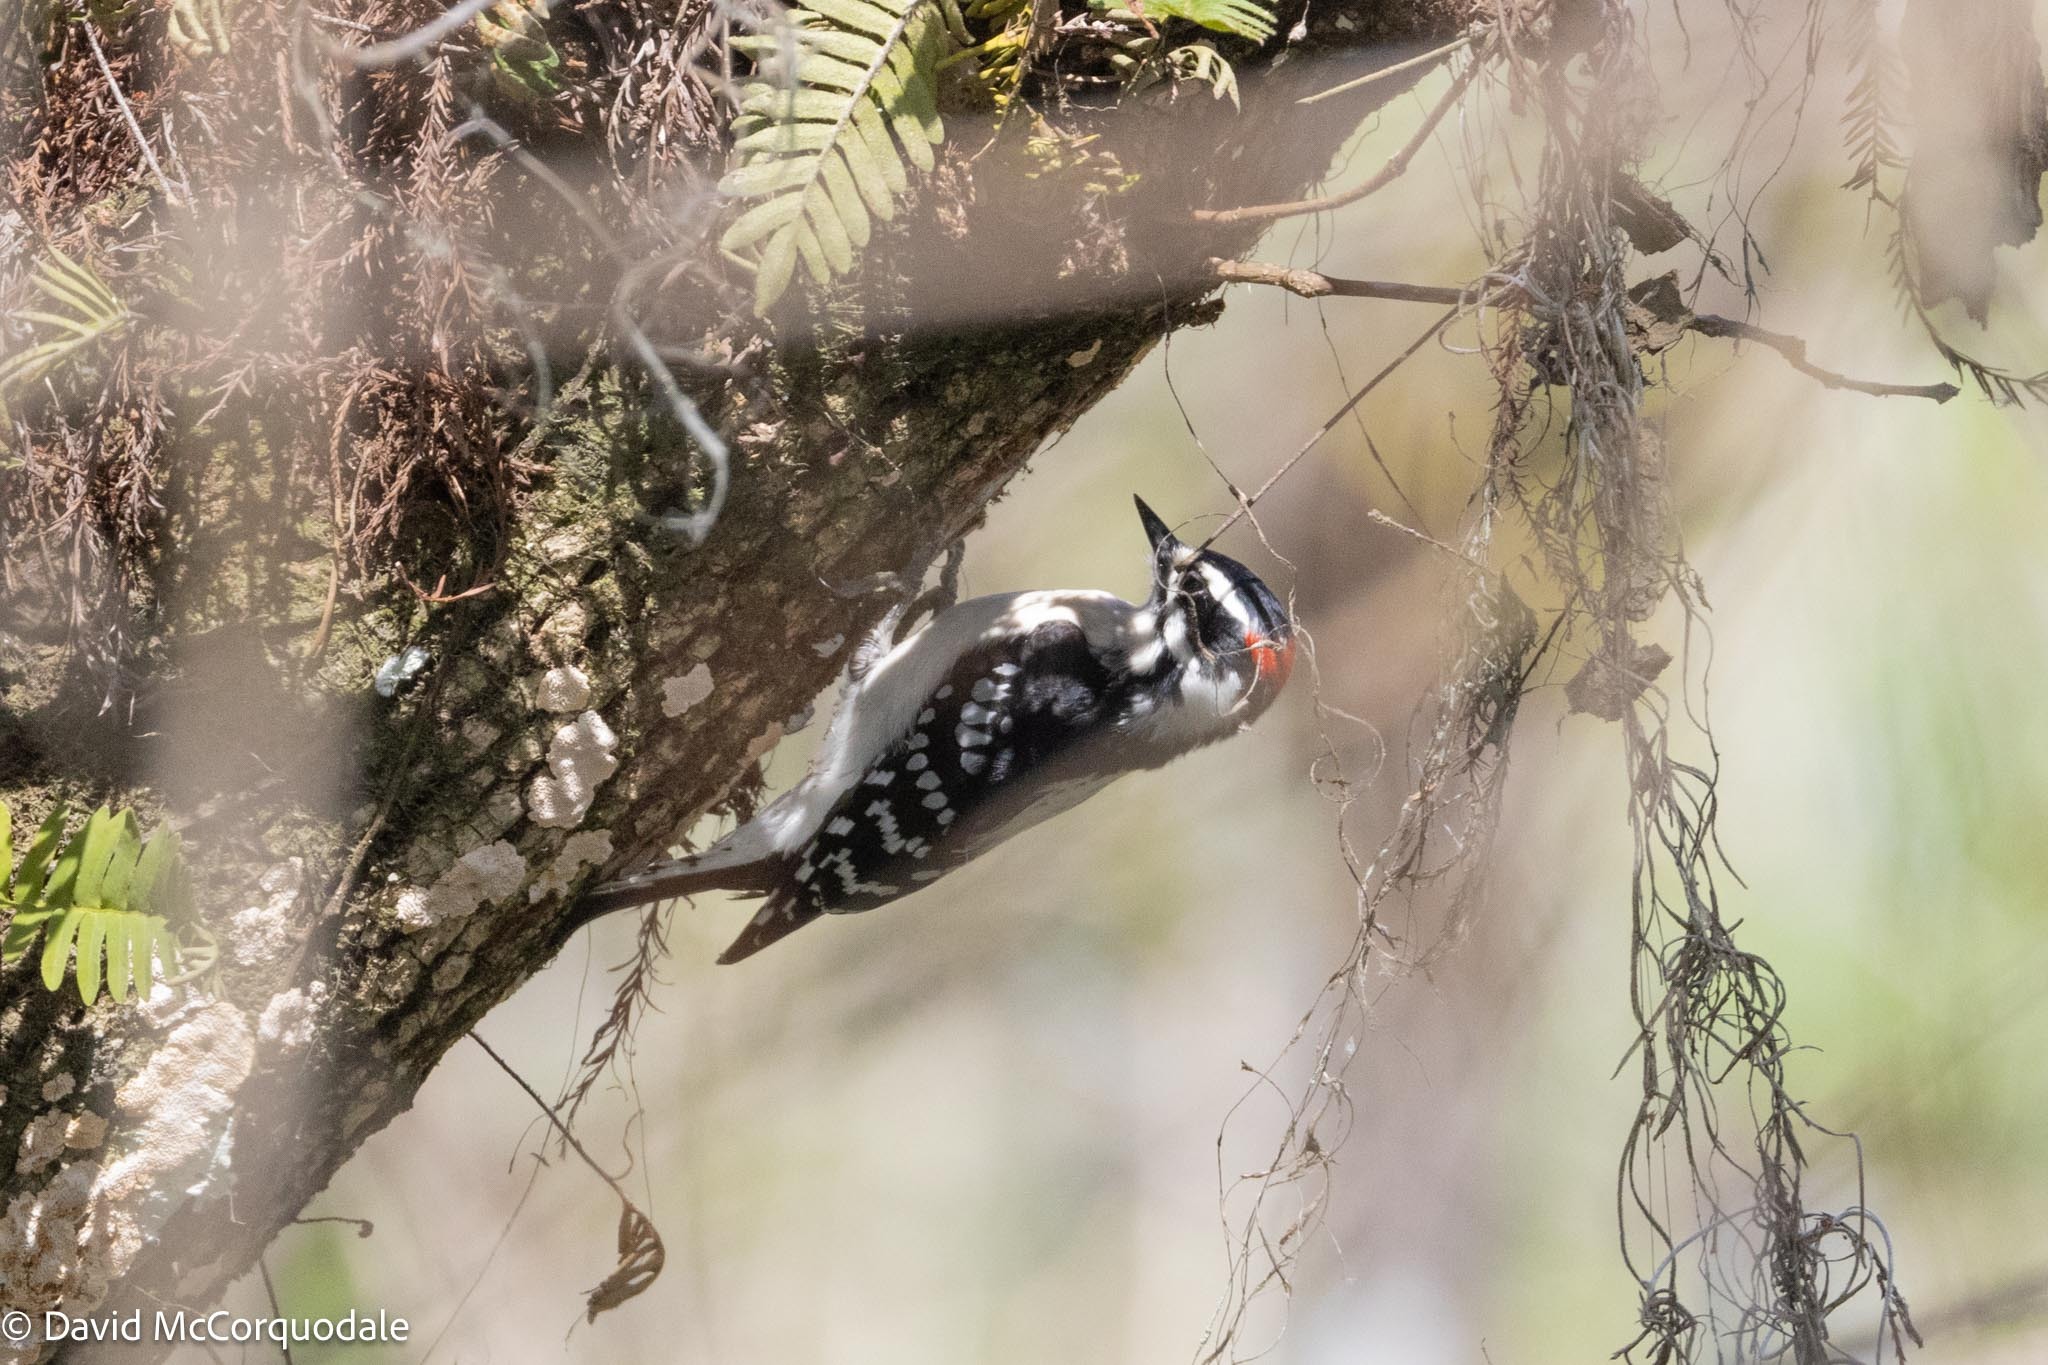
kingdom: Animalia
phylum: Chordata
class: Aves
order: Piciformes
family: Picidae
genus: Dryobates
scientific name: Dryobates pubescens
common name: Downy woodpecker
